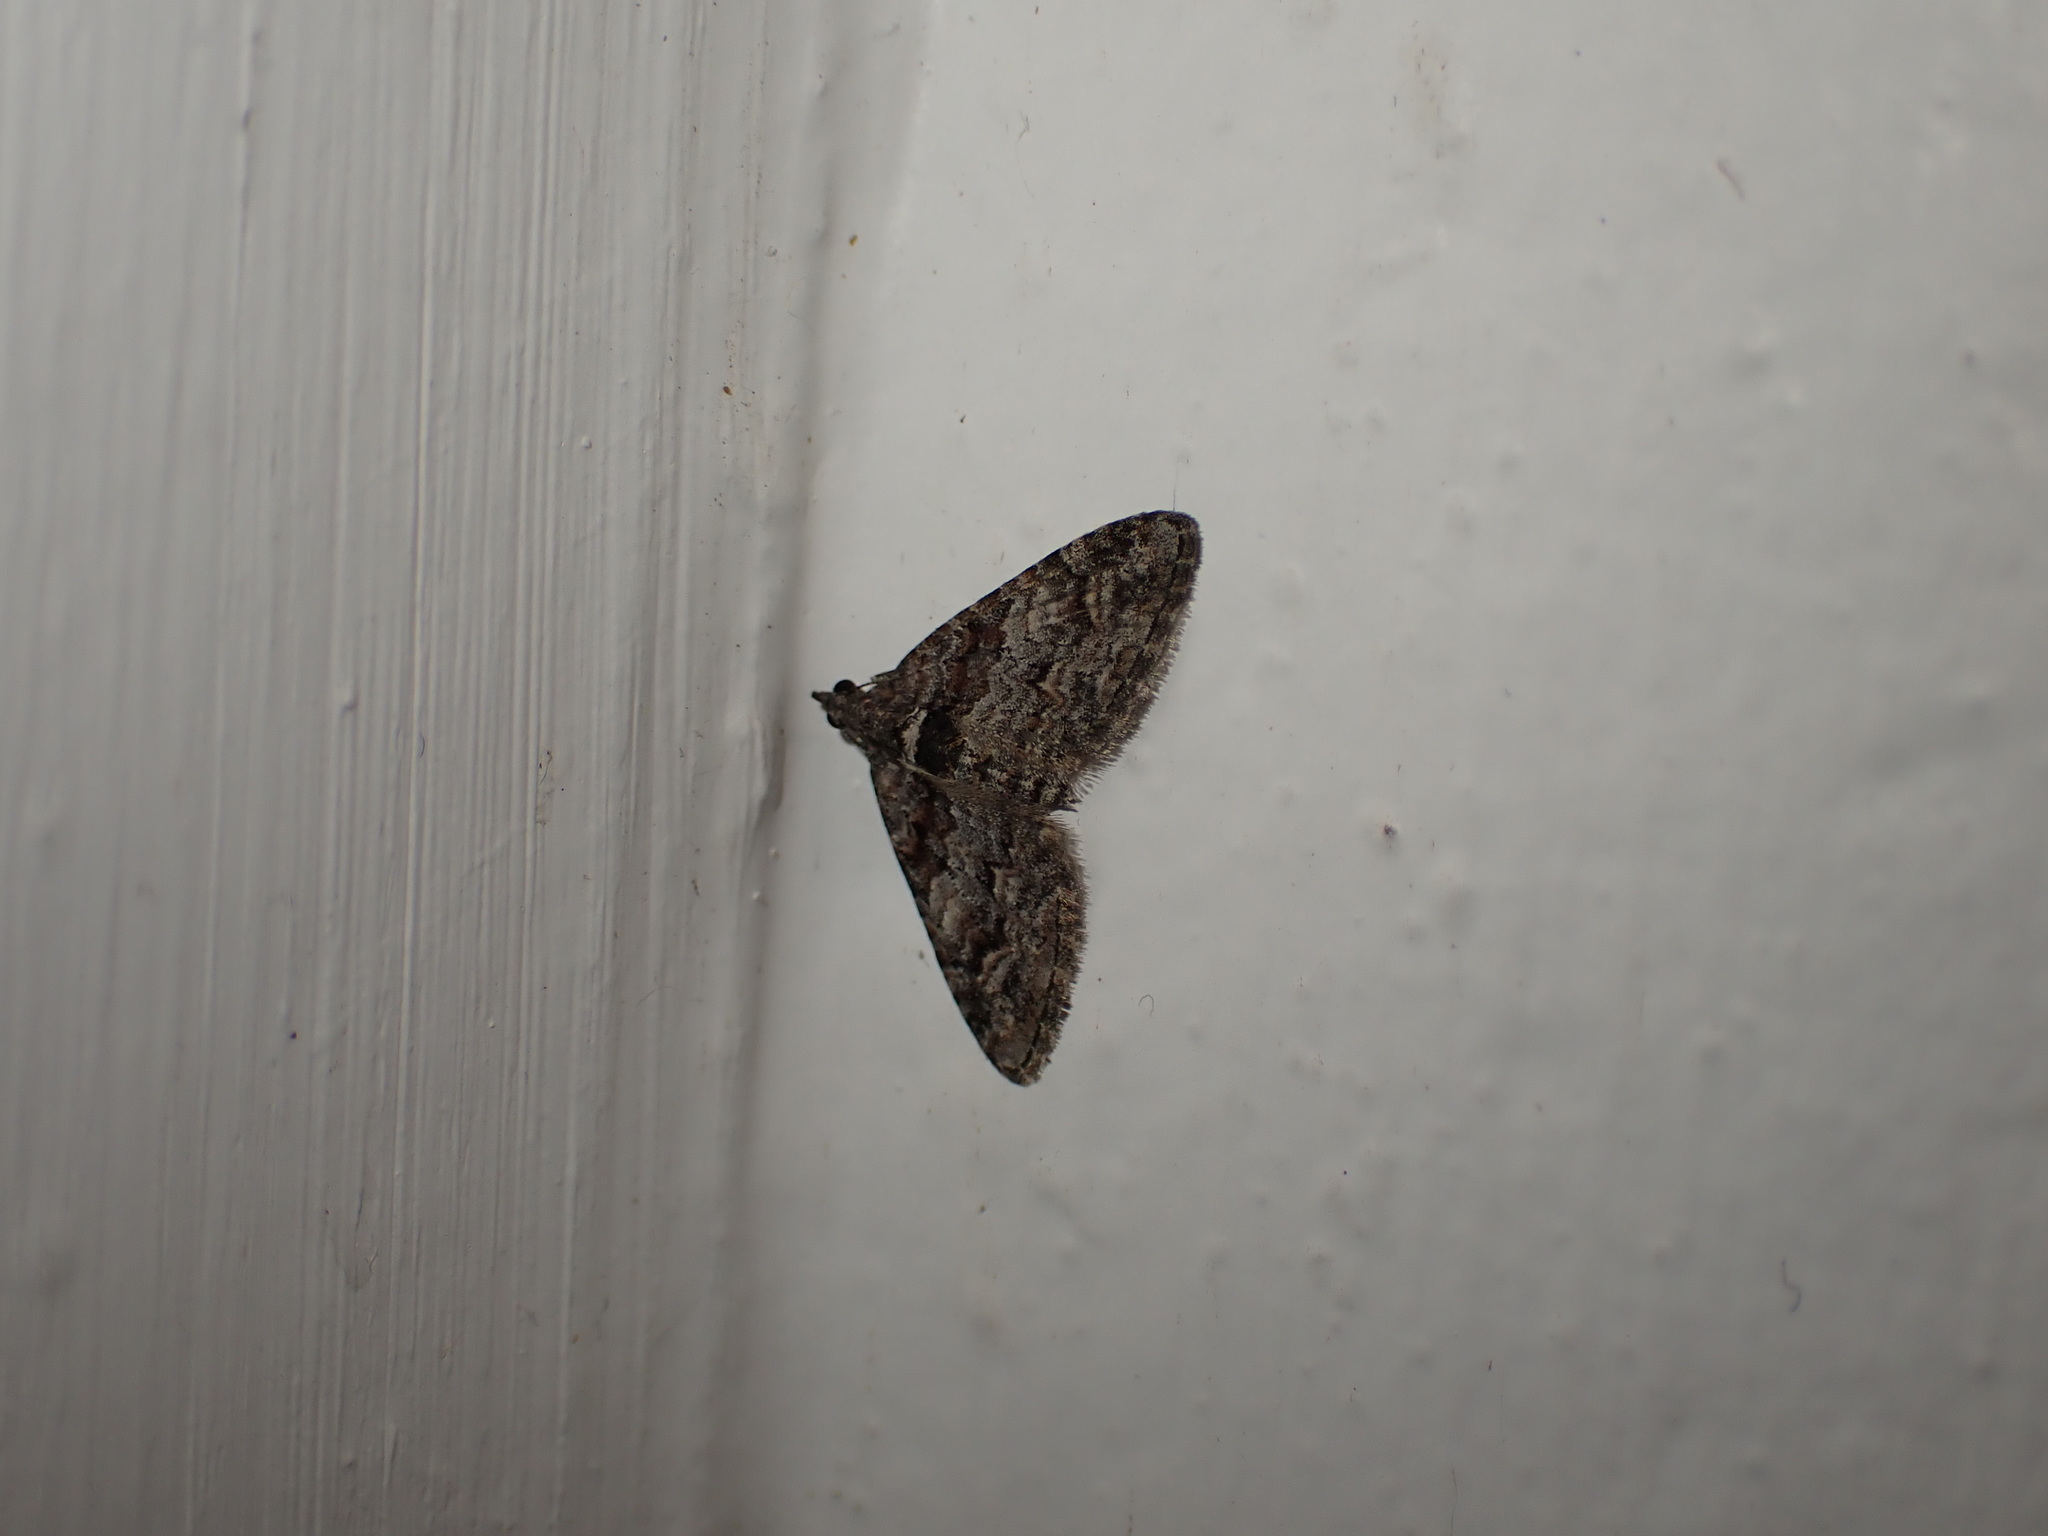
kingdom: Animalia
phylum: Arthropoda
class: Insecta
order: Lepidoptera
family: Geometridae
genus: Phrissogonus
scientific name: Phrissogonus laticostata
